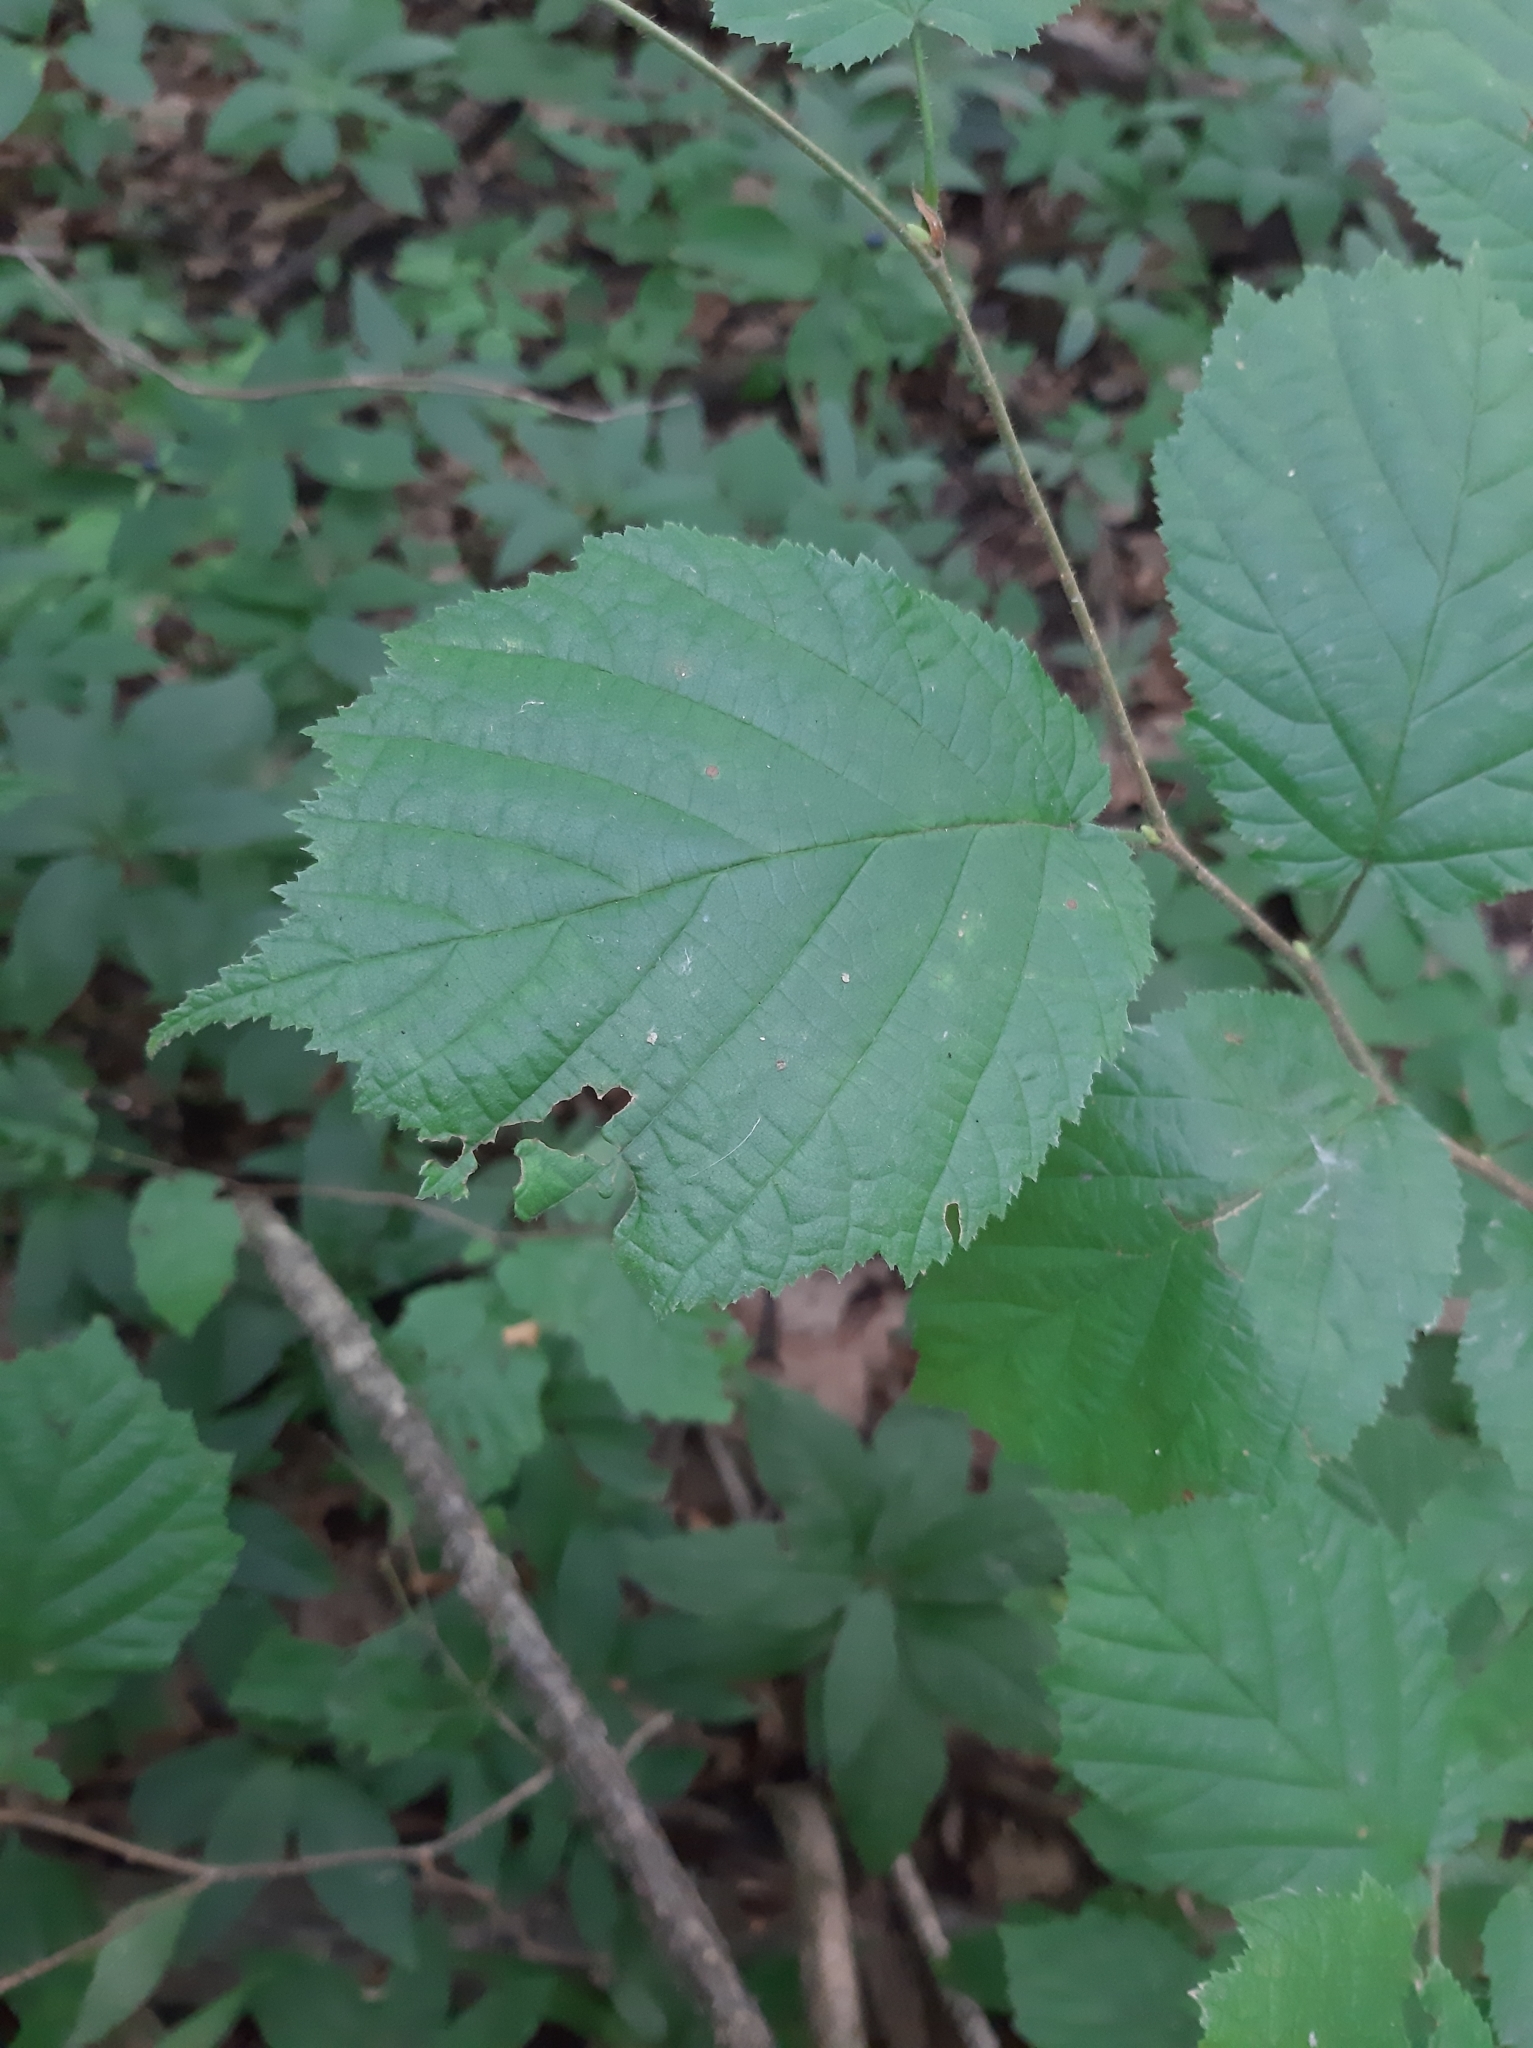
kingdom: Plantae
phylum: Tracheophyta
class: Magnoliopsida
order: Fagales
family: Betulaceae
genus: Corylus
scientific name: Corylus avellana
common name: European hazel
